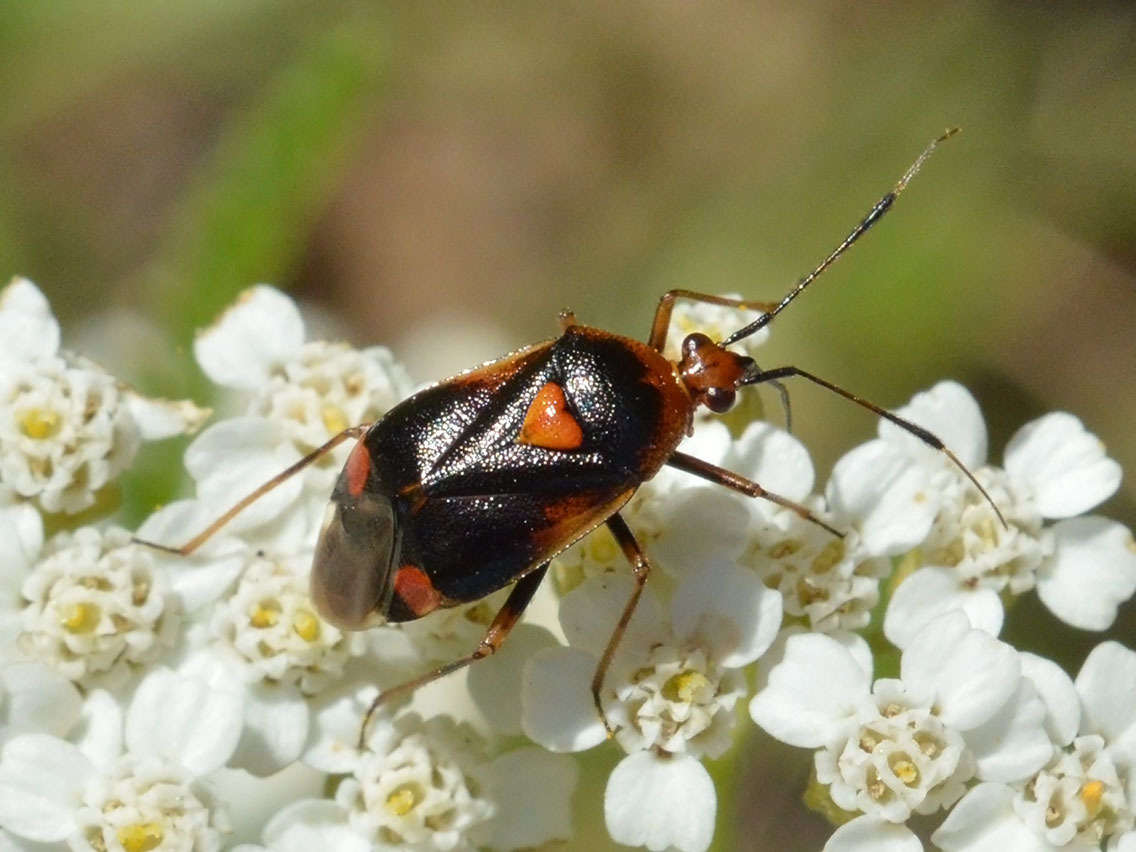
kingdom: Animalia
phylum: Arthropoda
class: Insecta
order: Hemiptera
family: Miridae
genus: Deraeocoris
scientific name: Deraeocoris ruber
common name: Plant bug
